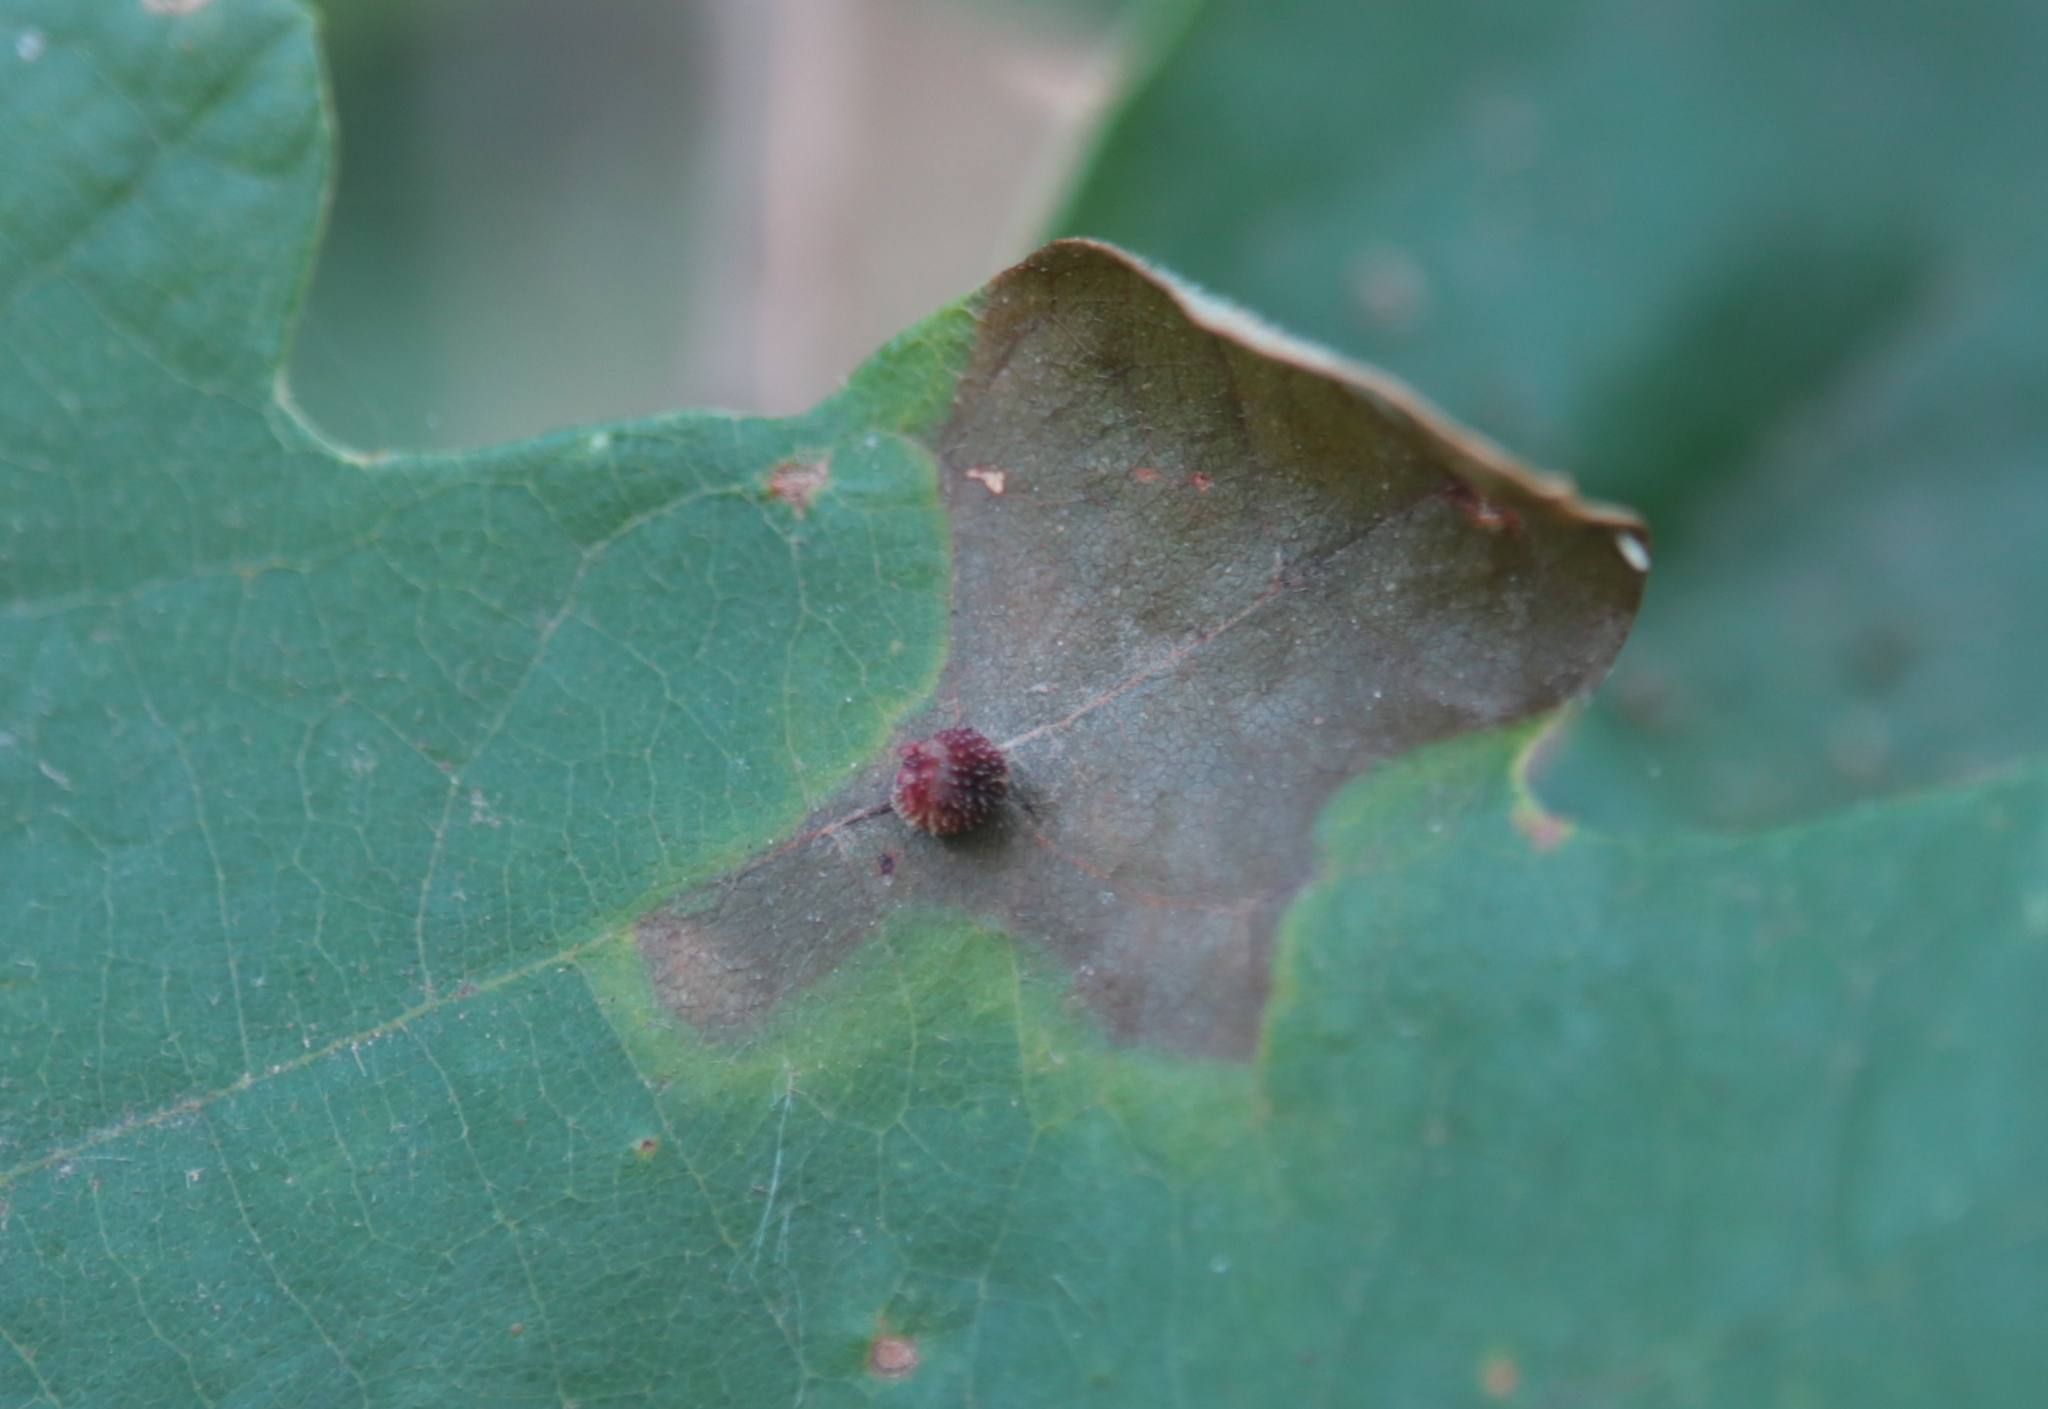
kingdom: Animalia
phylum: Arthropoda
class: Insecta
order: Hymenoptera
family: Cynipidae
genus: Acraspis
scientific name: Acraspis quercushirta
